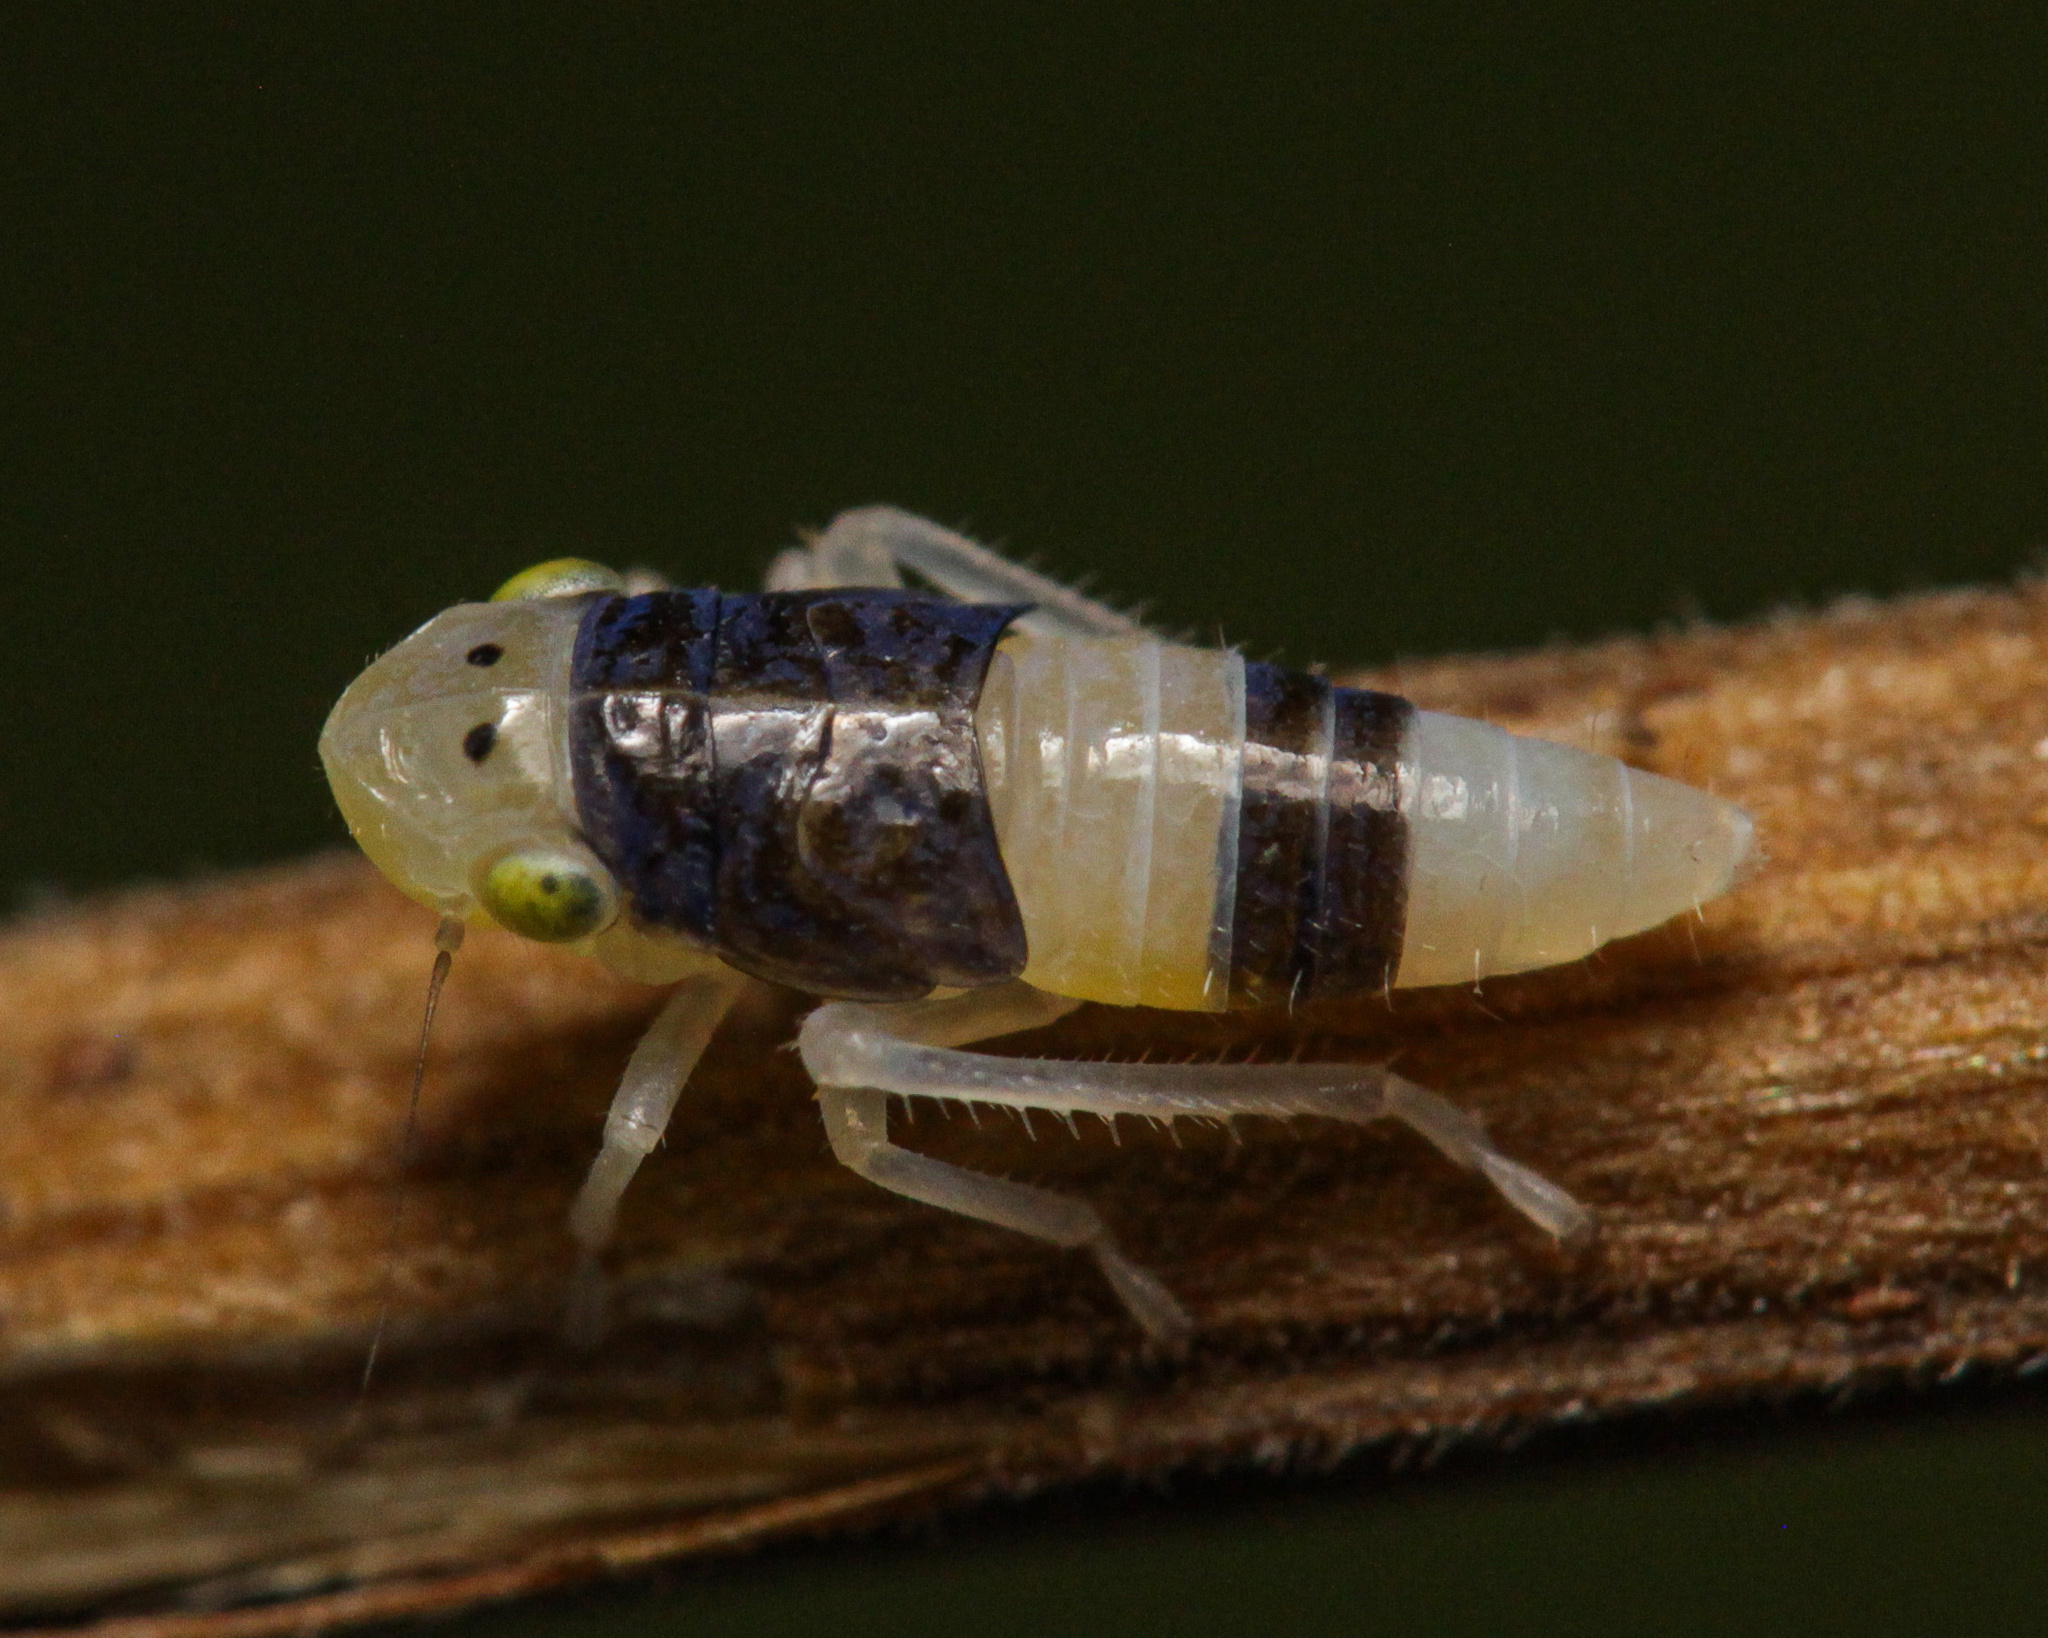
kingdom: Animalia
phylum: Arthropoda
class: Insecta
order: Hemiptera
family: Cicadellidae
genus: Evacanthus
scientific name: Evacanthus interruptus
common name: Leafhopper
